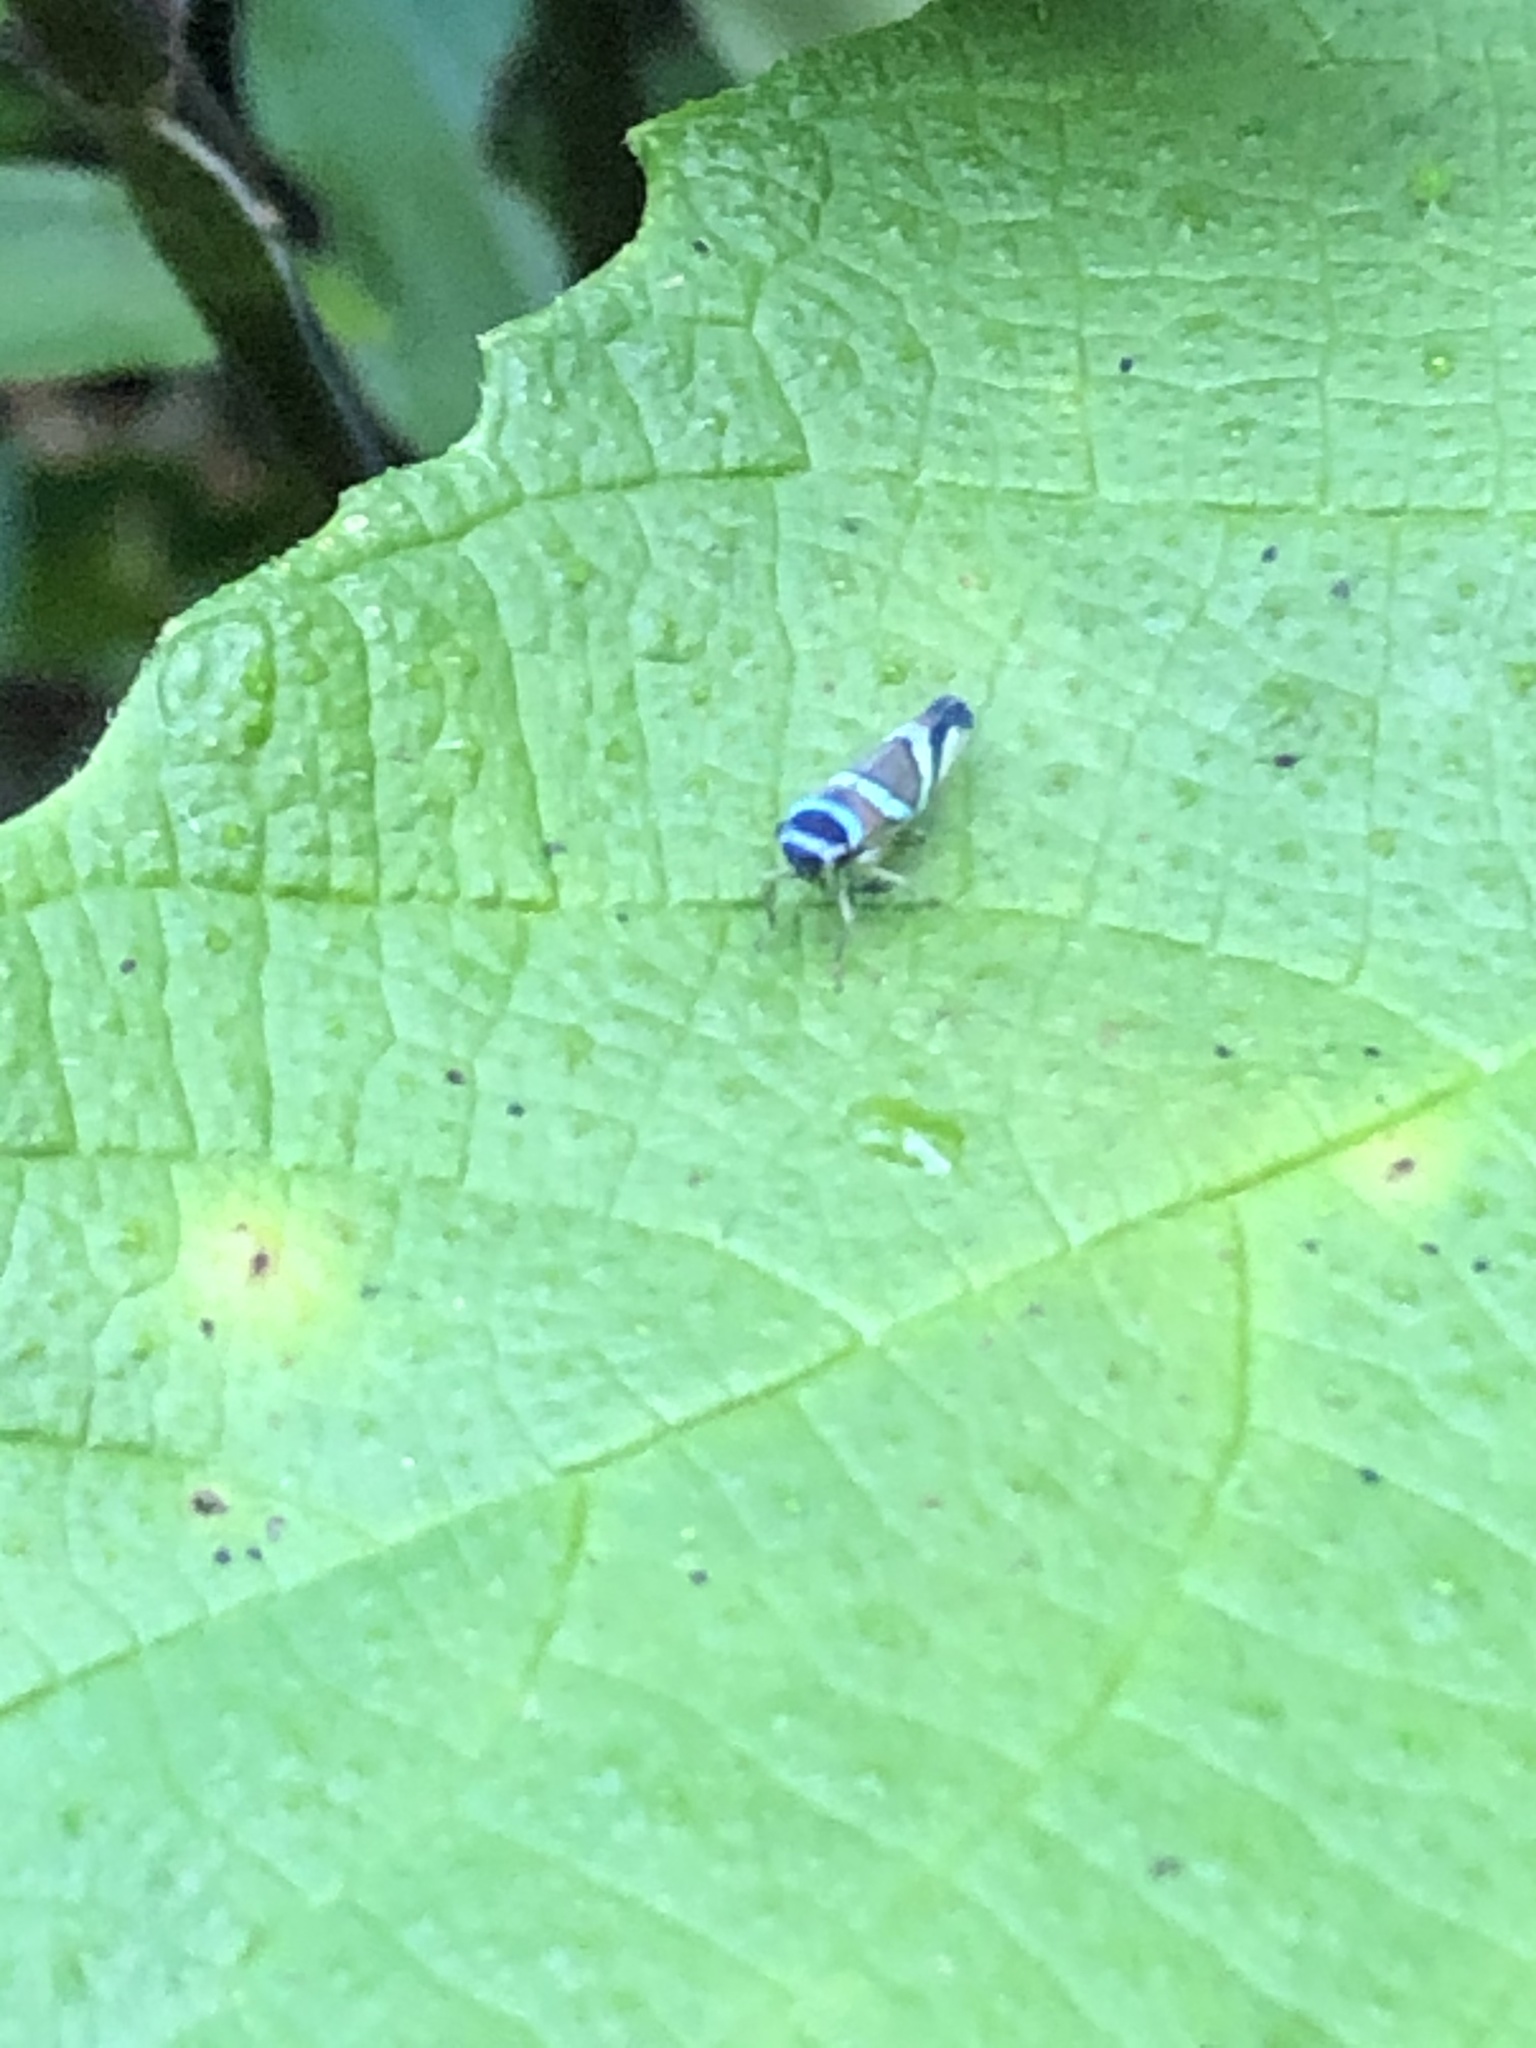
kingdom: Animalia
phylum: Arthropoda
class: Insecta
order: Hemiptera
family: Cicadellidae
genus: Macugonalia
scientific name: Macugonalia moesta
